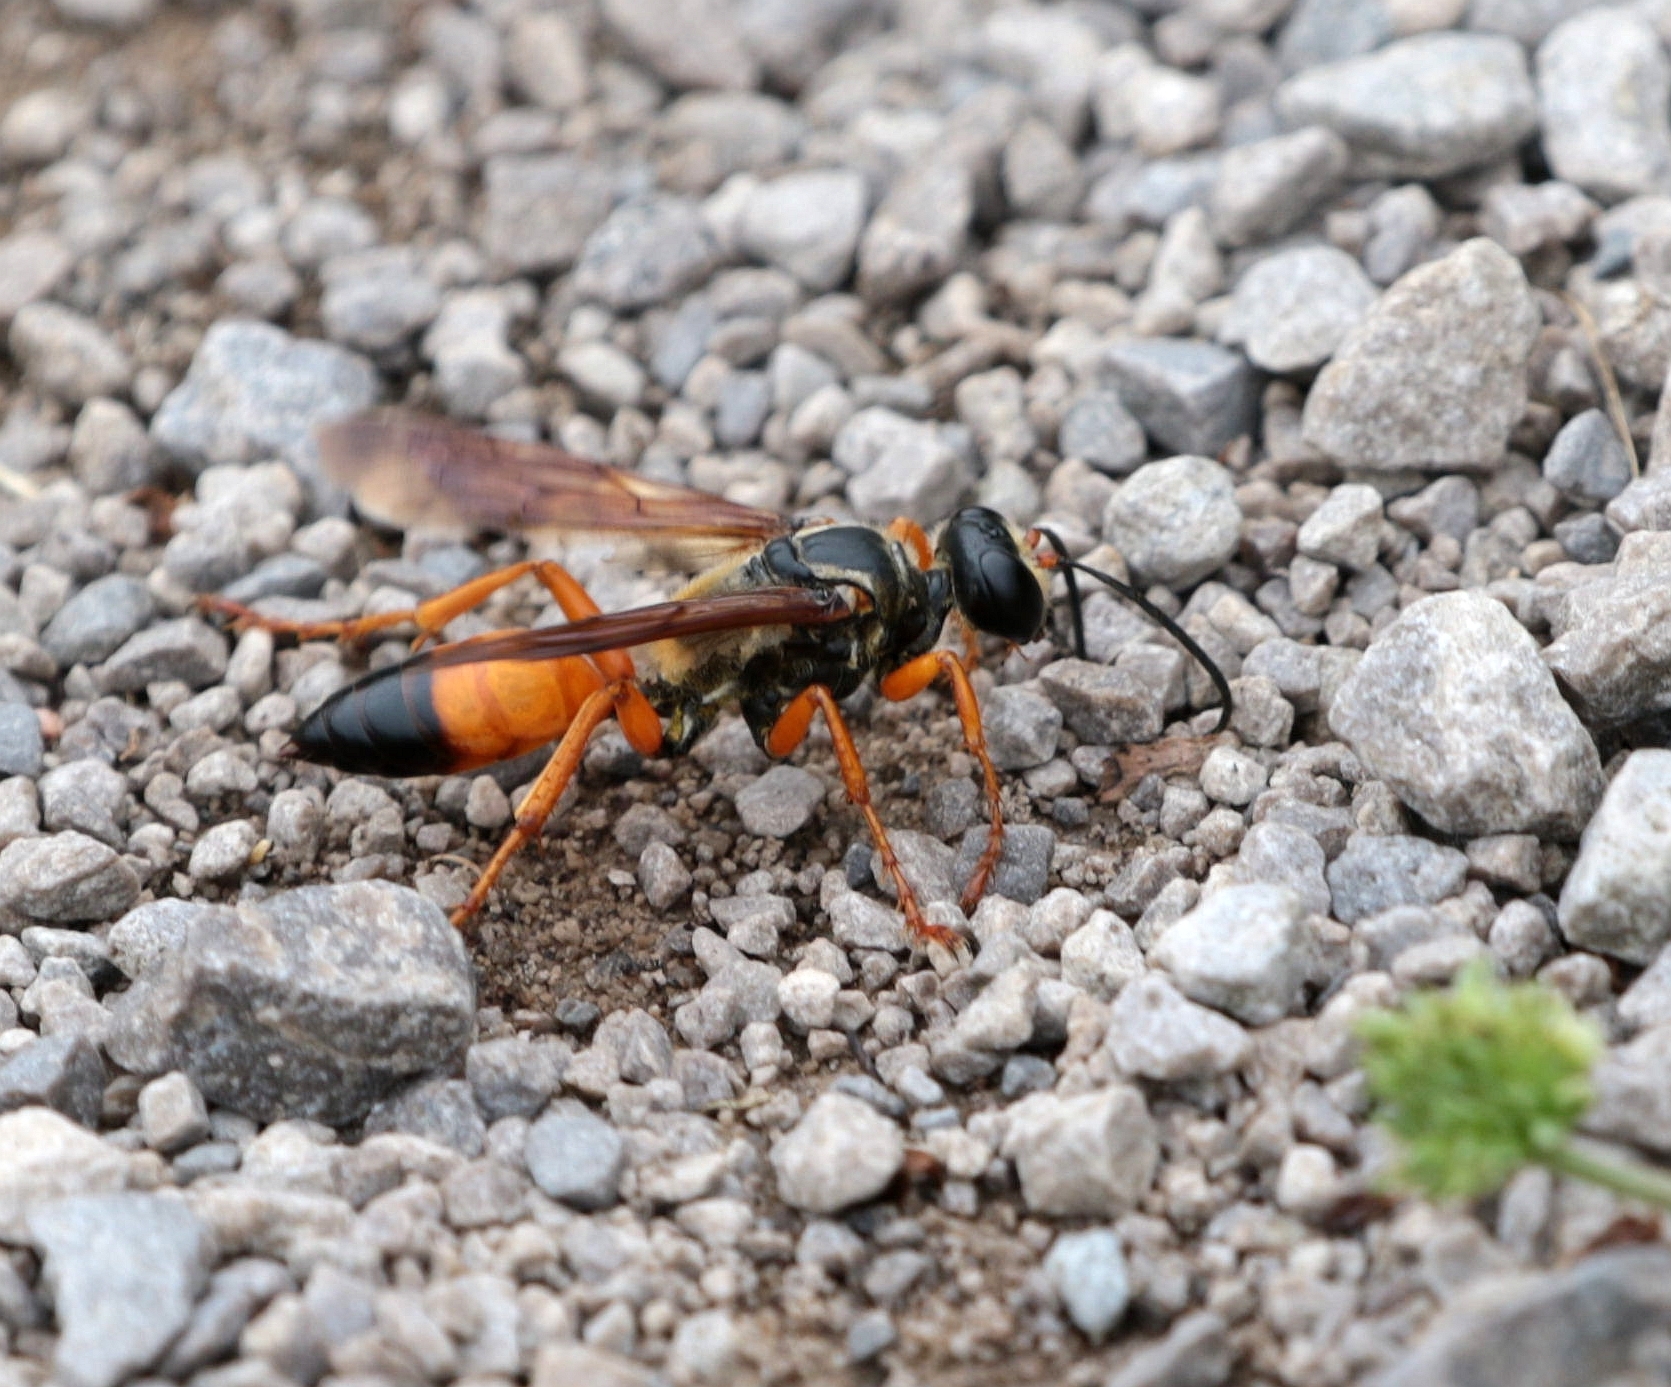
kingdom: Animalia
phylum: Arthropoda
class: Insecta
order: Hymenoptera
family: Sphecidae
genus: Sphex
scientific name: Sphex ichneumoneus
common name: Great golden digger wasp
